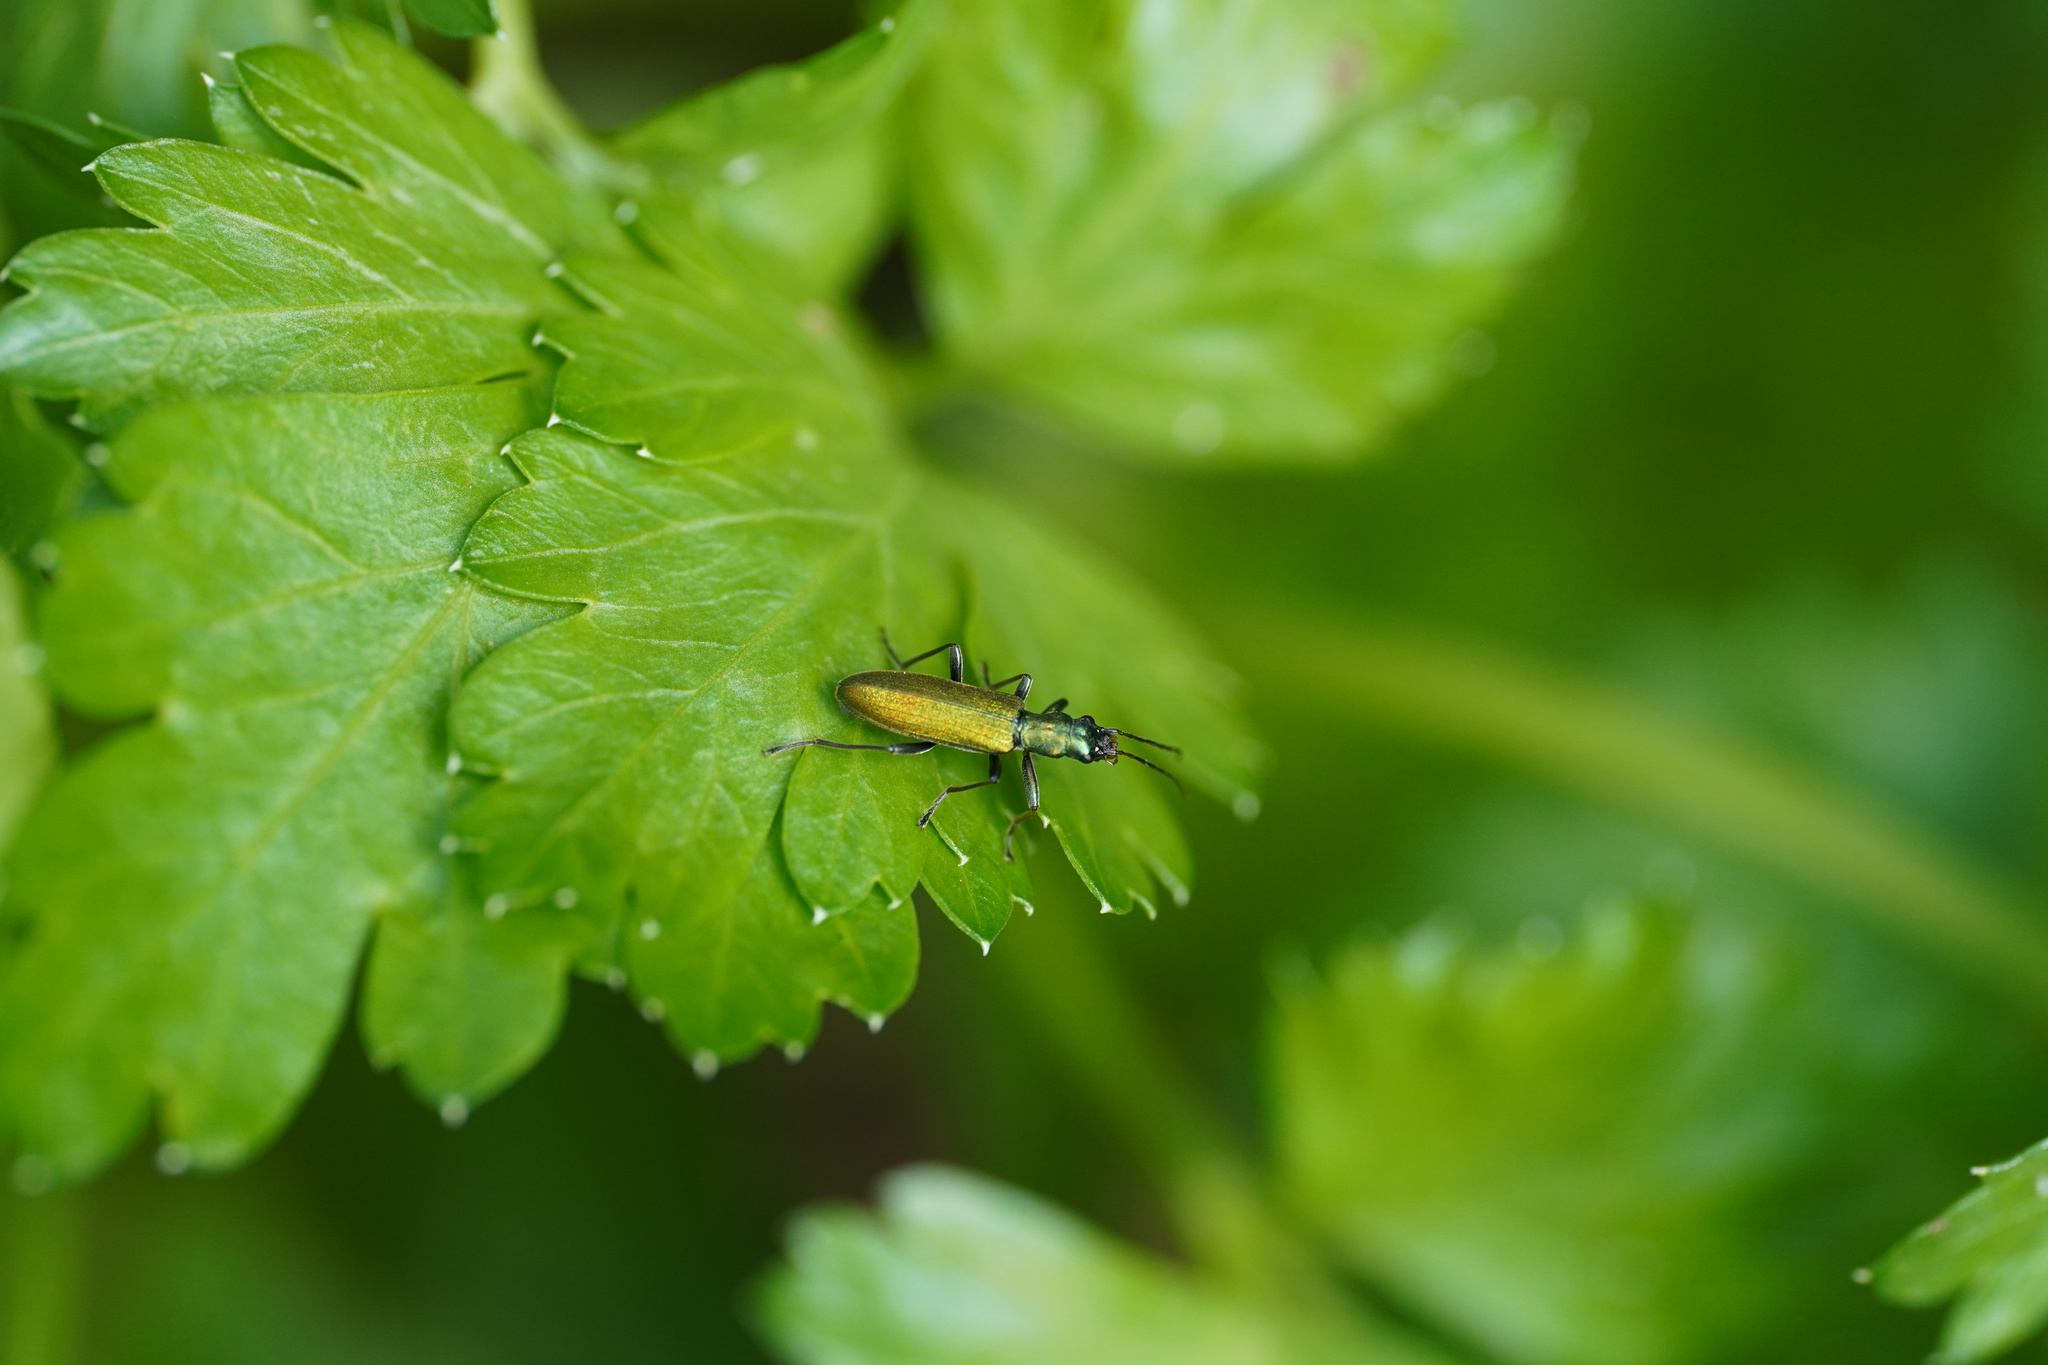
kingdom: Animalia
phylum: Arthropoda
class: Insecta
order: Coleoptera
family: Oedemeridae
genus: Chrysanthia
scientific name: Chrysanthia viridissima
